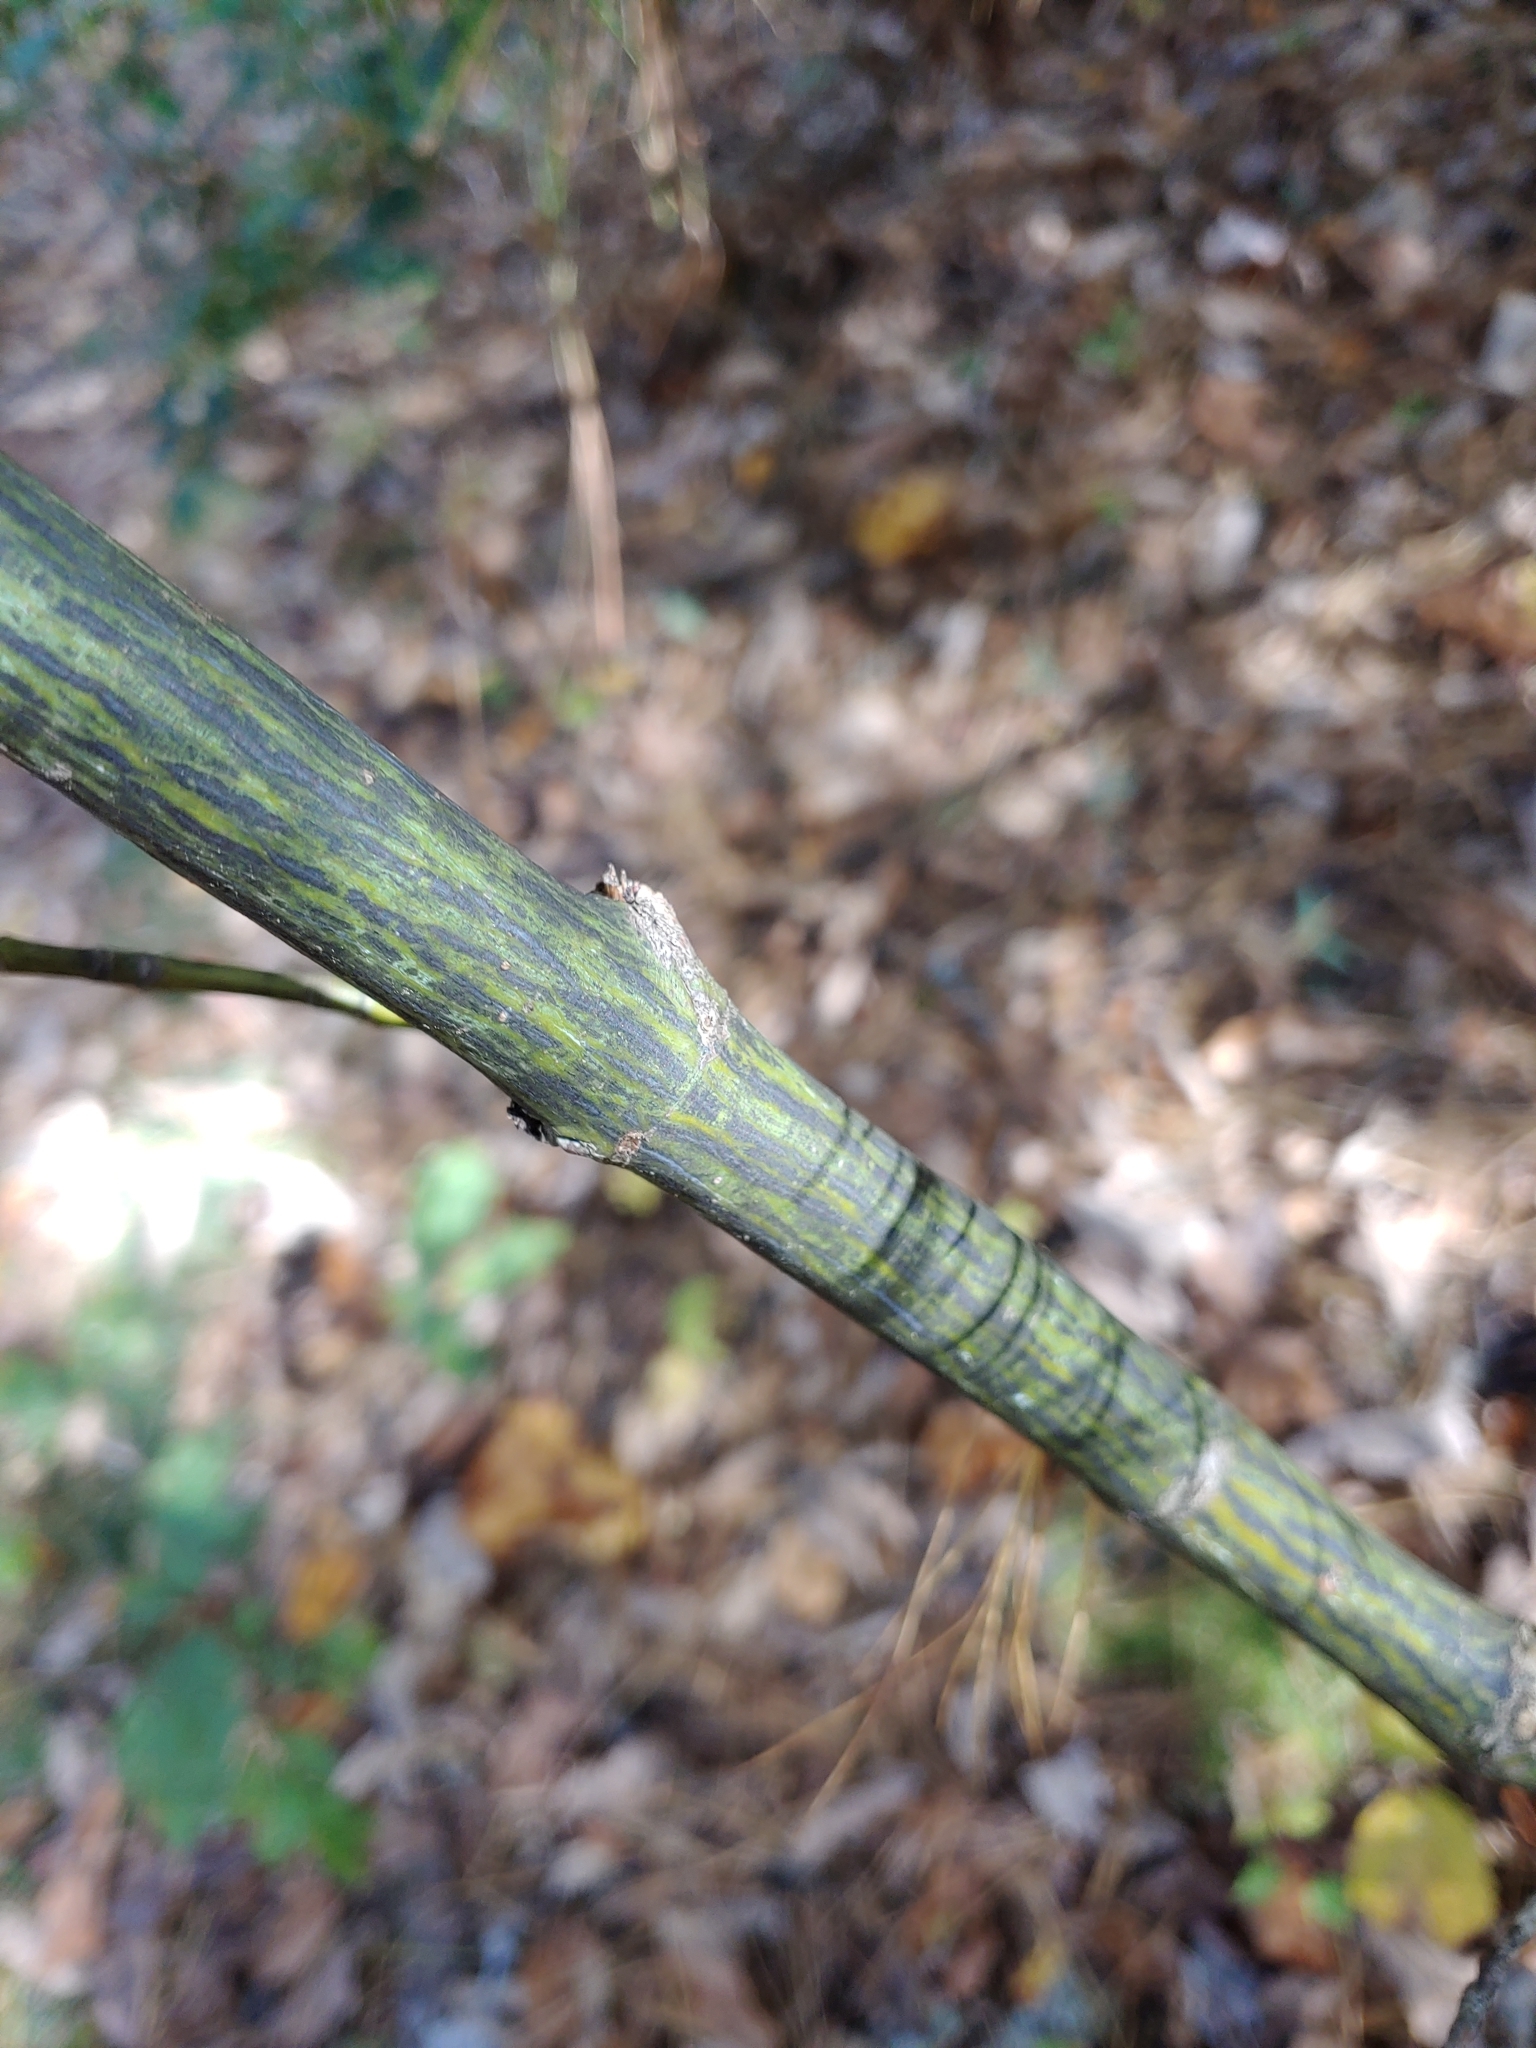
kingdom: Plantae
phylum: Tracheophyta
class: Magnoliopsida
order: Sapindales
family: Sapindaceae
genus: Acer
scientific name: Acer pensylvanicum
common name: Moosewood
